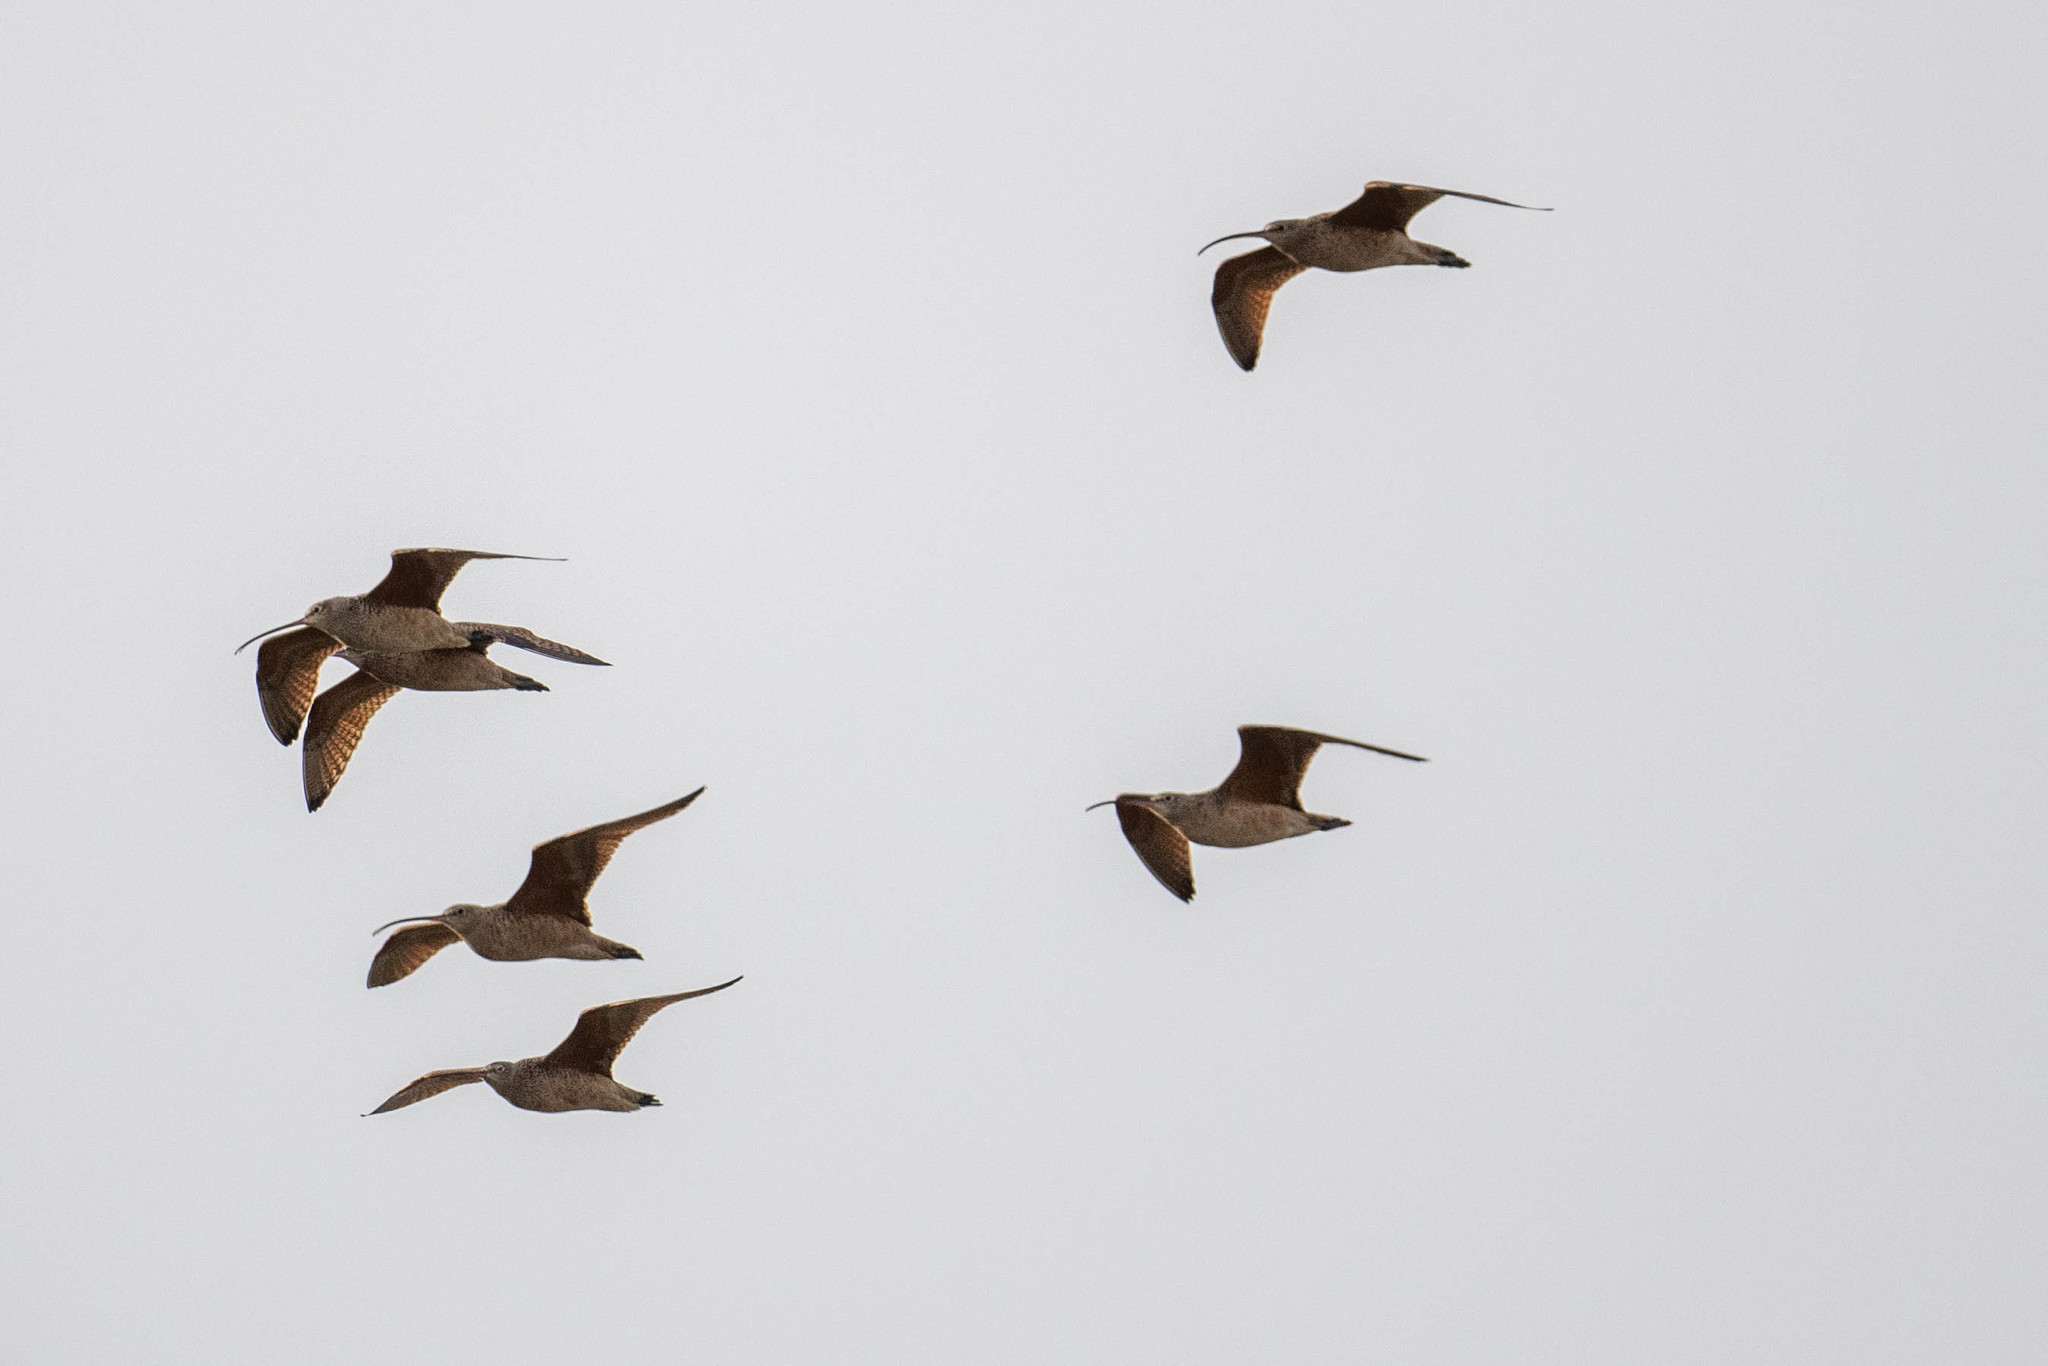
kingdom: Animalia
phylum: Chordata
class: Aves
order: Charadriiformes
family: Scolopacidae
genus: Numenius
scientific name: Numenius americanus
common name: Long-billed curlew
